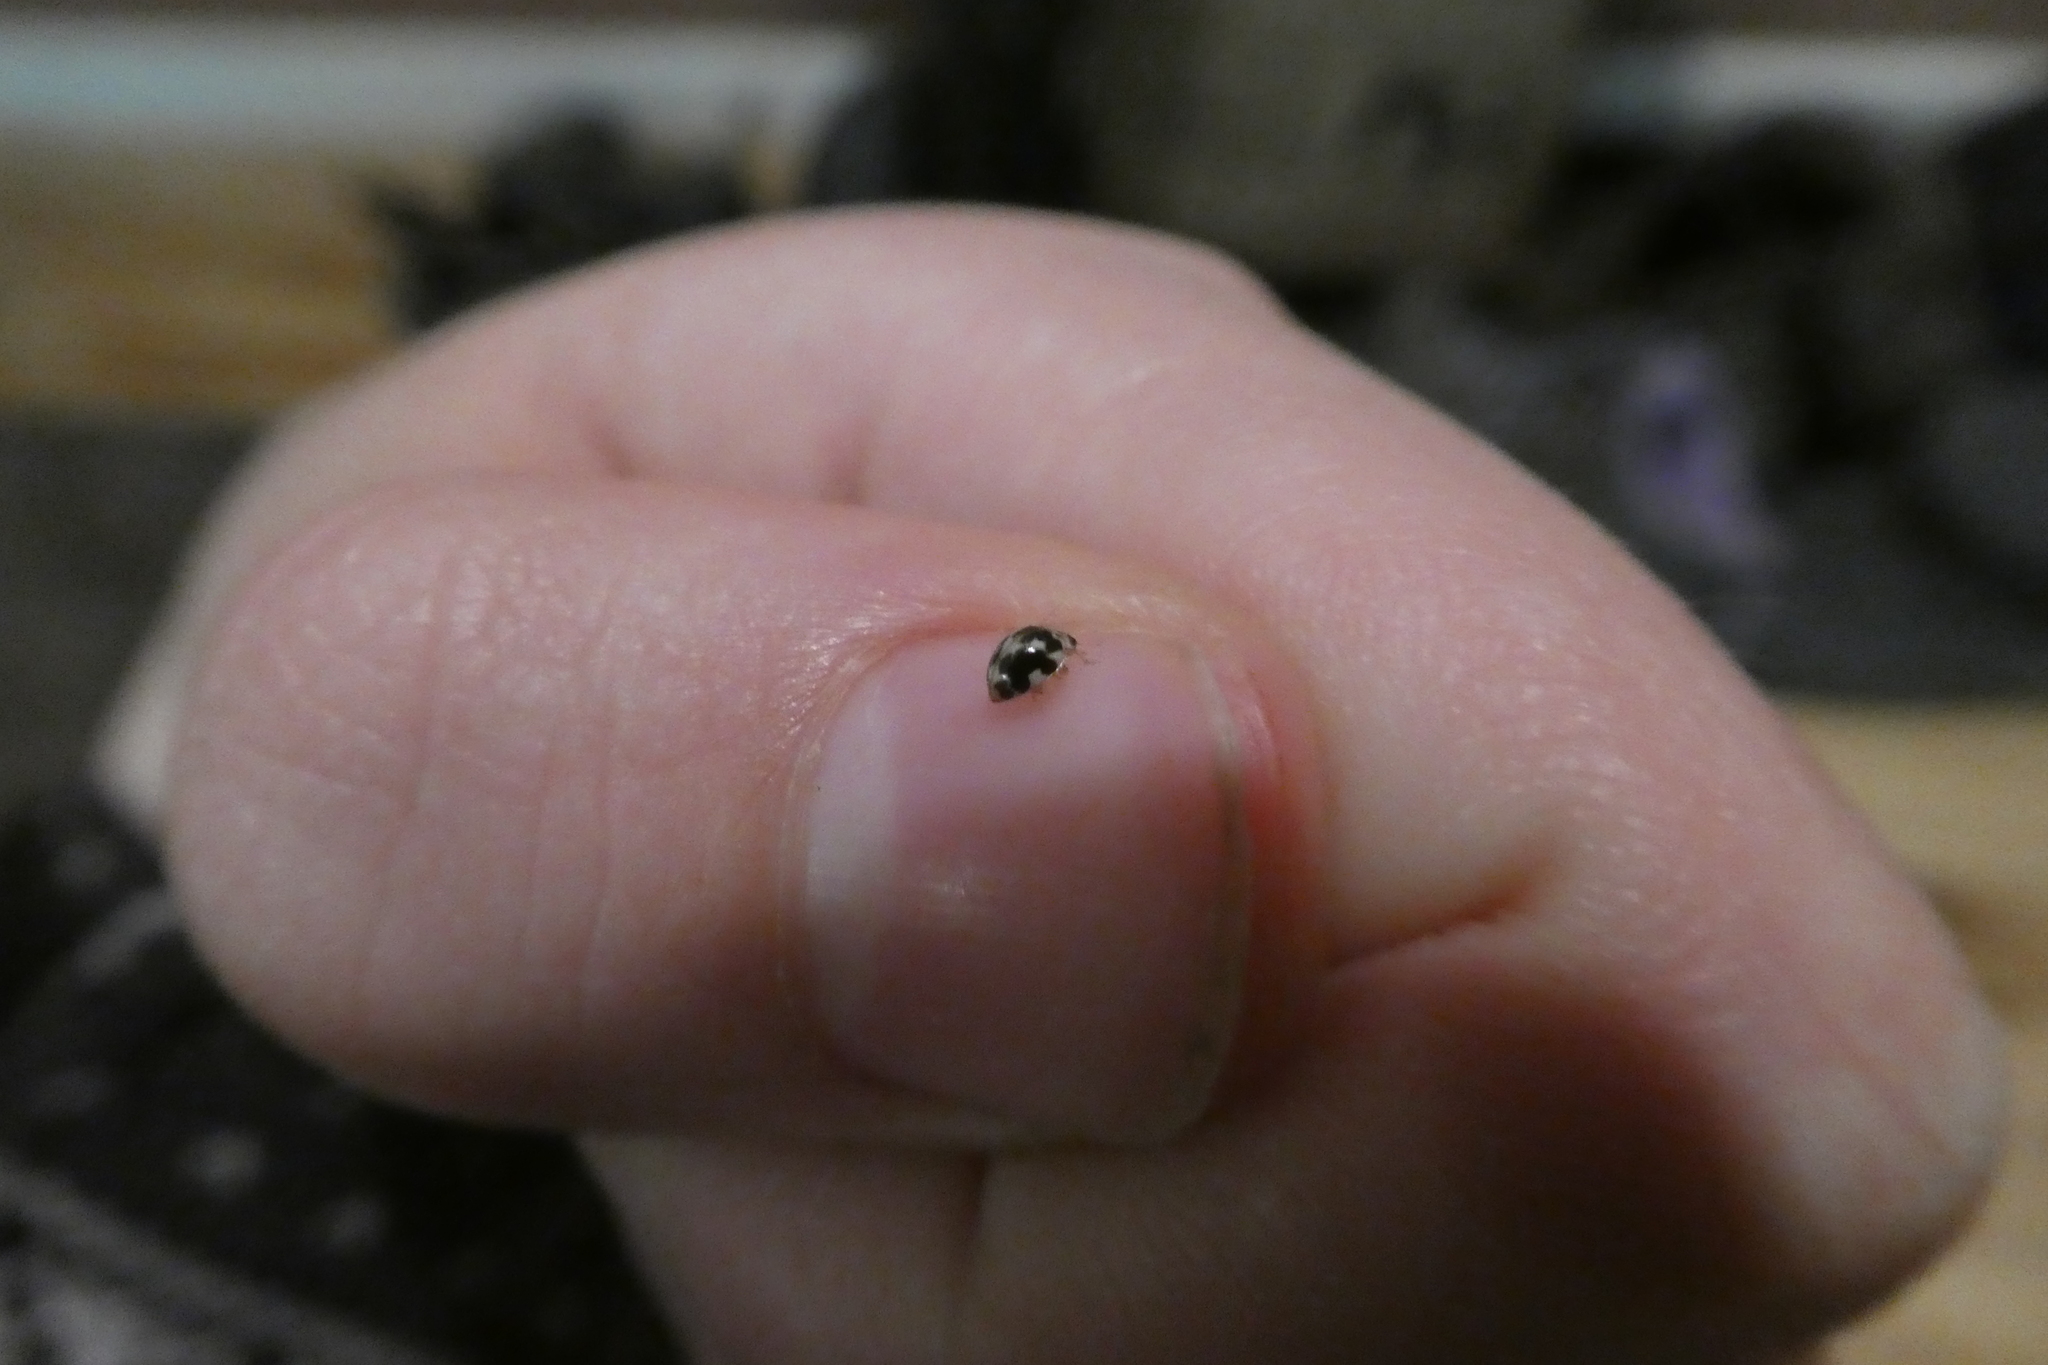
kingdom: Animalia
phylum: Arthropoda
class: Insecta
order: Coleoptera
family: Coccinellidae
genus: Psyllobora
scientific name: Psyllobora vigintimaculata
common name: Ladybird beetle
